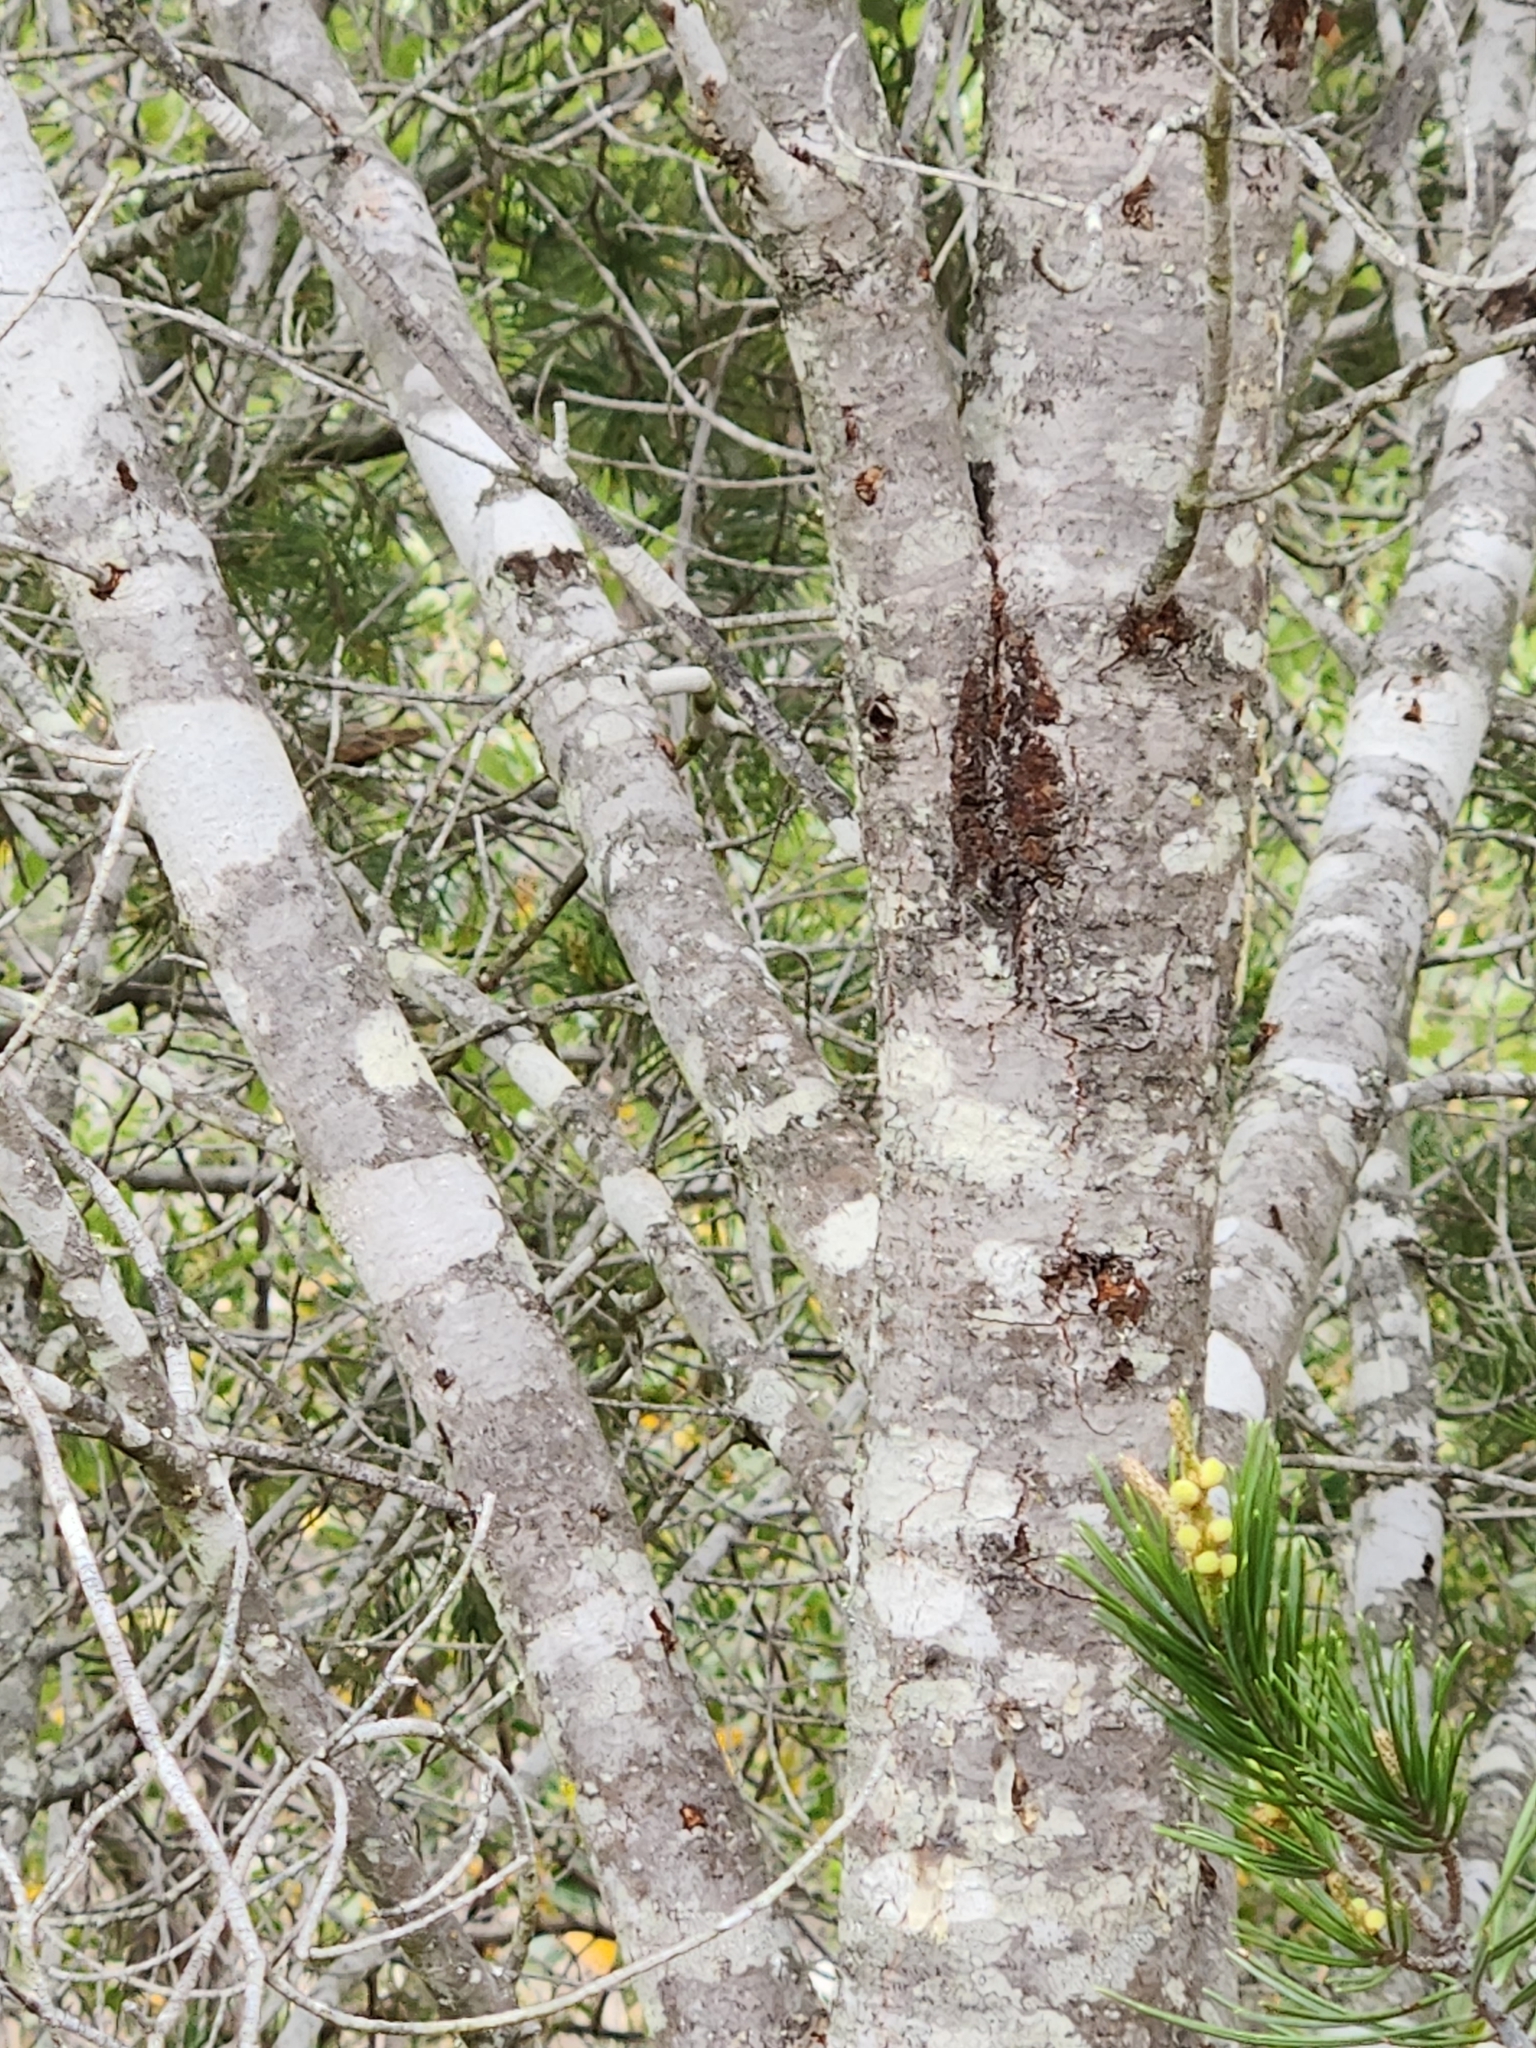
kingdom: Plantae
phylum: Tracheophyta
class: Pinopsida
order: Pinales
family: Pinaceae
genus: Pinus
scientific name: Pinus remota
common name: Nut pine
